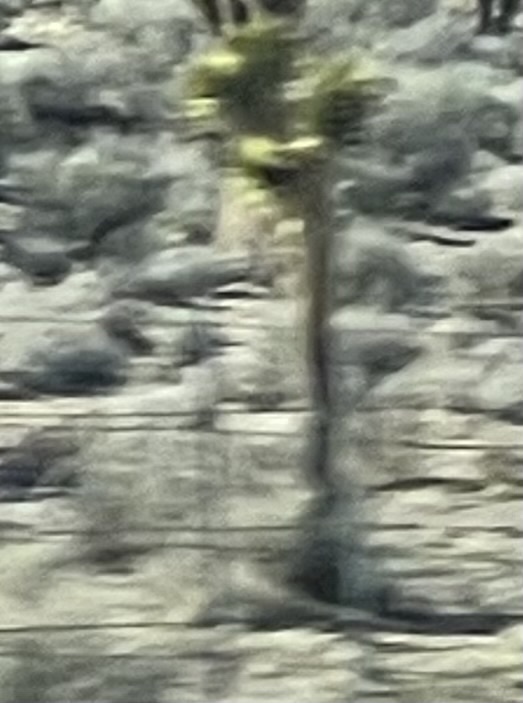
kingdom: Plantae
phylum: Tracheophyta
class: Liliopsida
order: Asparagales
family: Asparagaceae
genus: Yucca
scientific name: Yucca brevifolia
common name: Joshua tree
